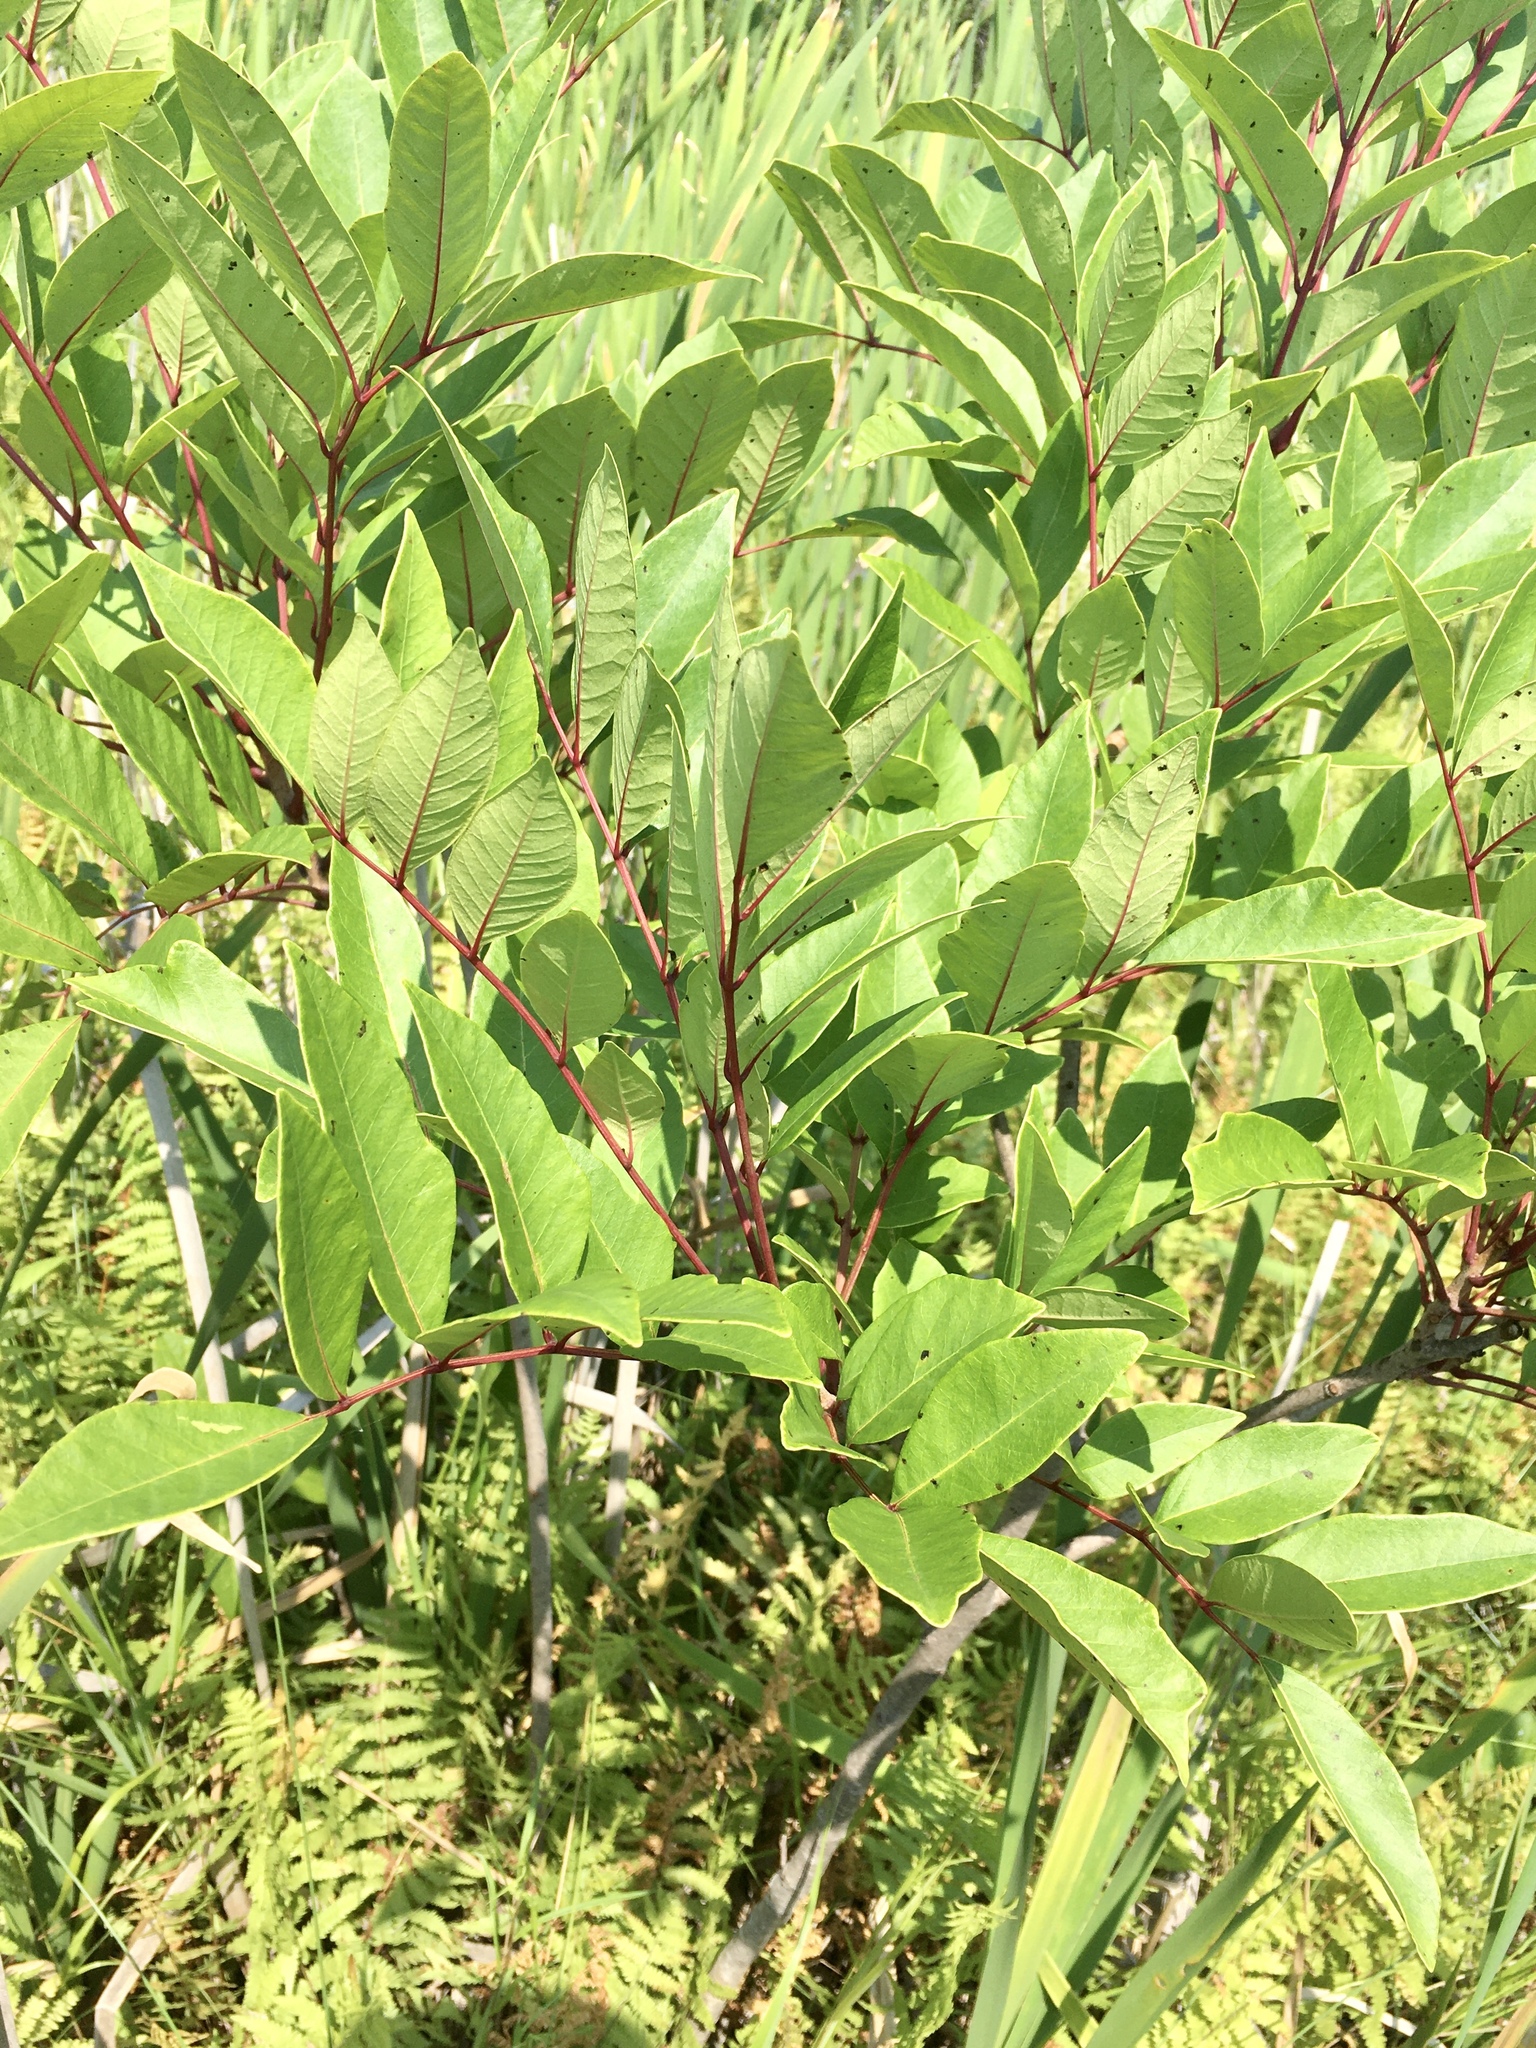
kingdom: Plantae
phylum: Tracheophyta
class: Magnoliopsida
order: Sapindales
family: Anacardiaceae
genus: Toxicodendron
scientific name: Toxicodendron vernix
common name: Poison sumac
